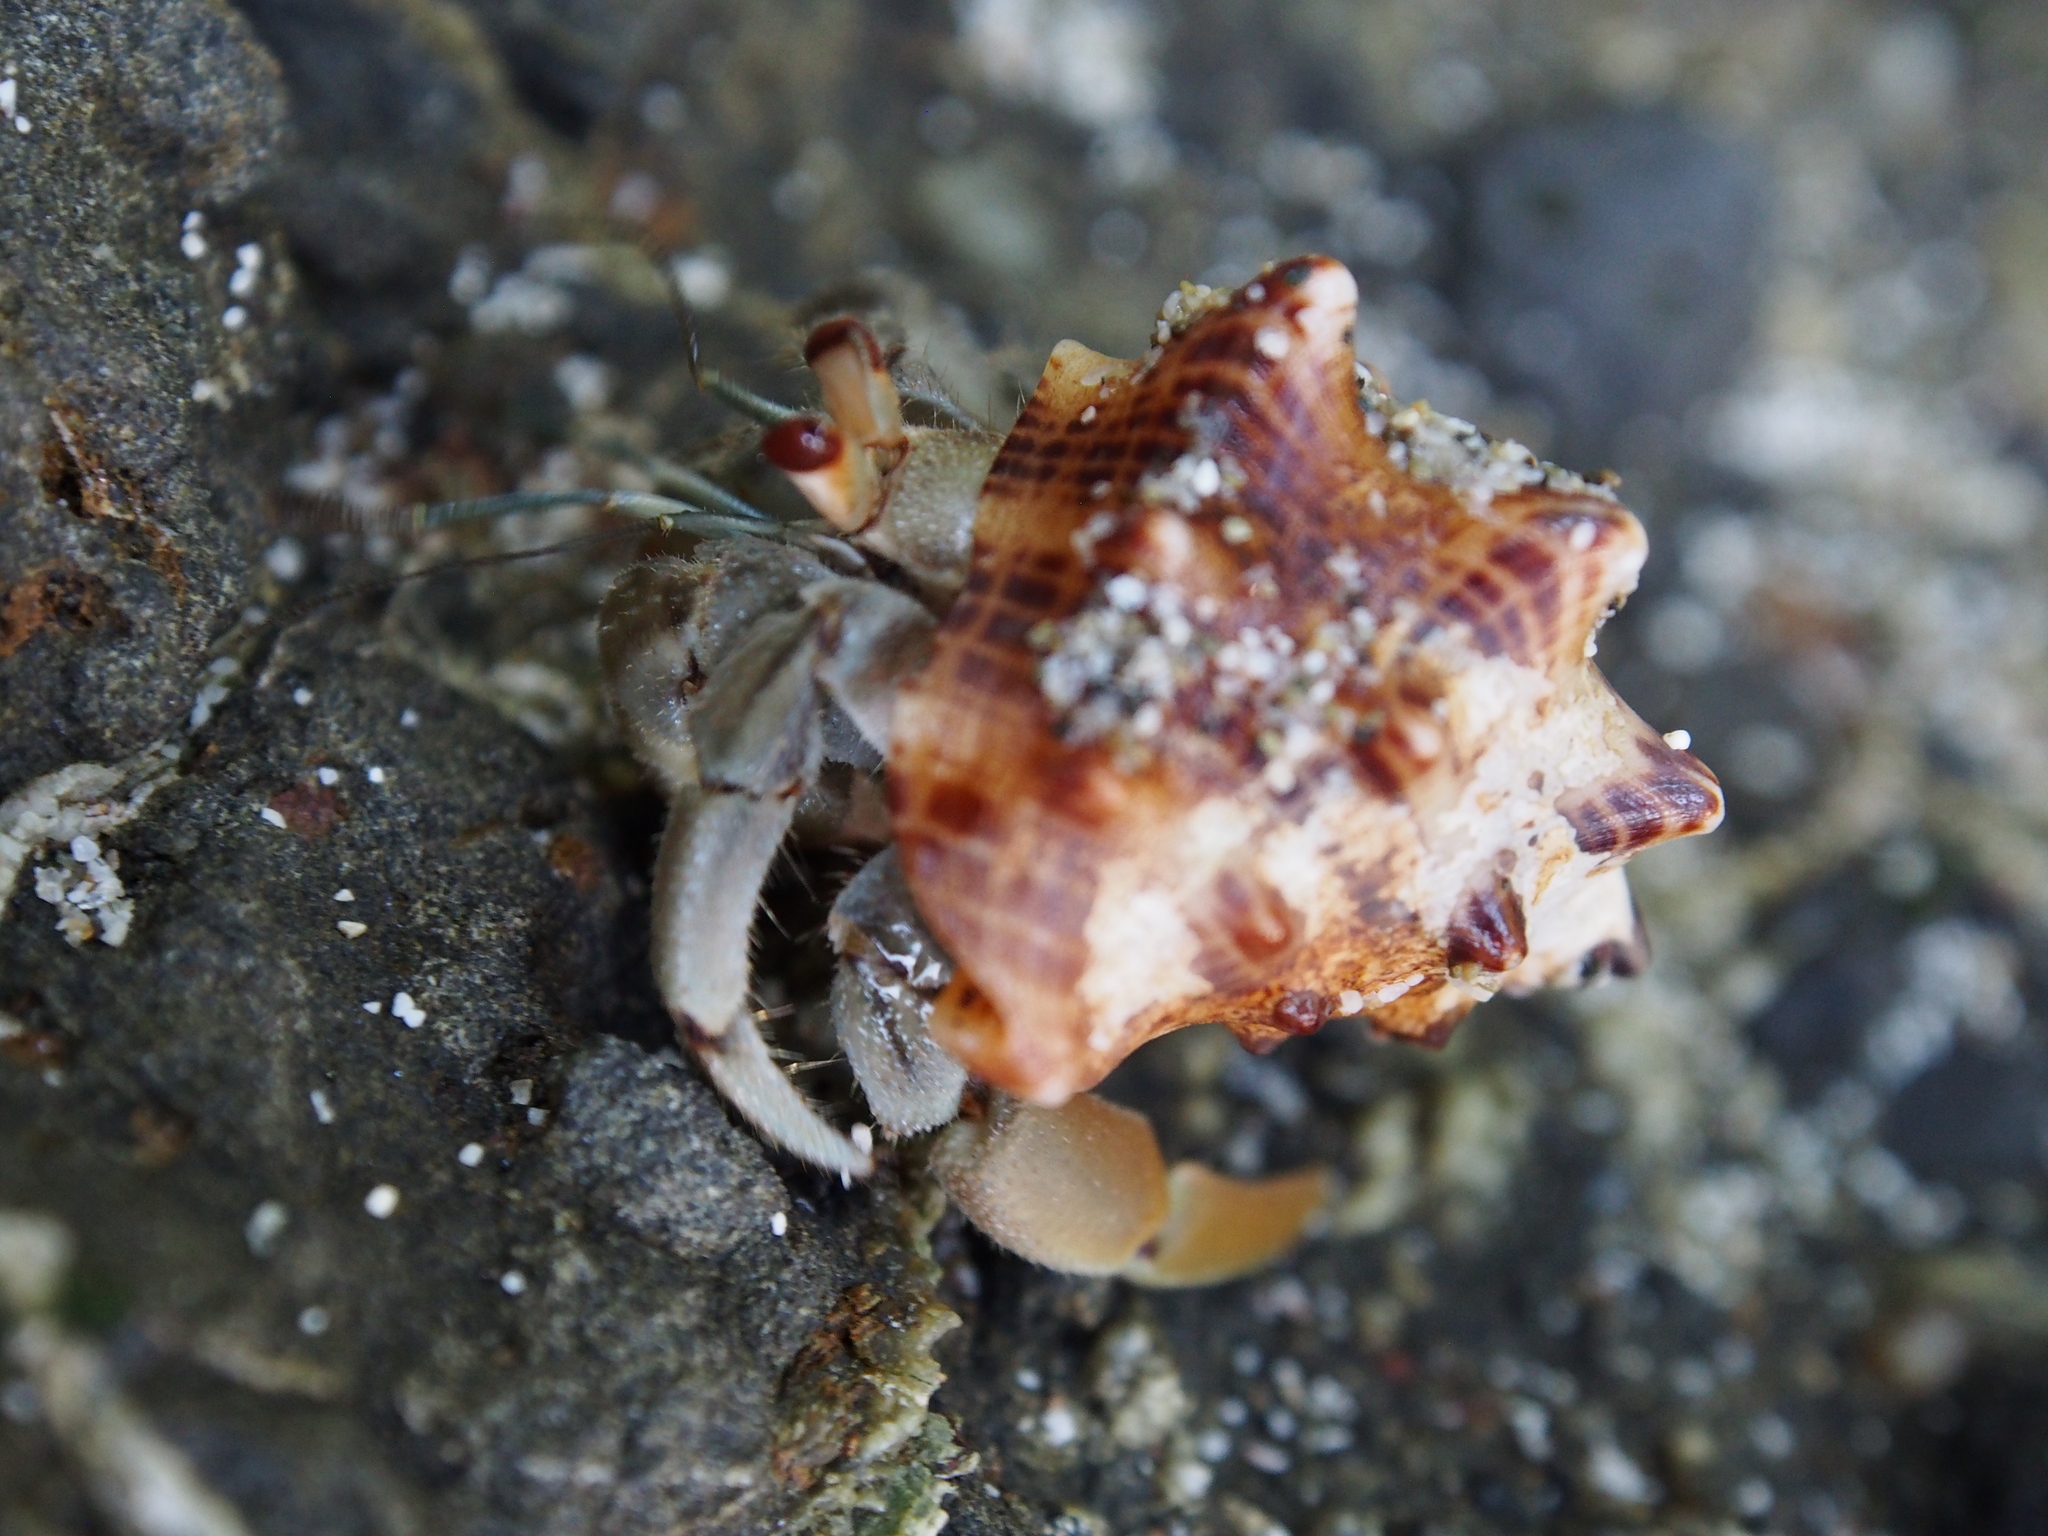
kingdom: Animalia
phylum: Arthropoda
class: Malacostraca
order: Decapoda
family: Coenobitidae
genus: Coenobita
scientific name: Coenobita compressus
